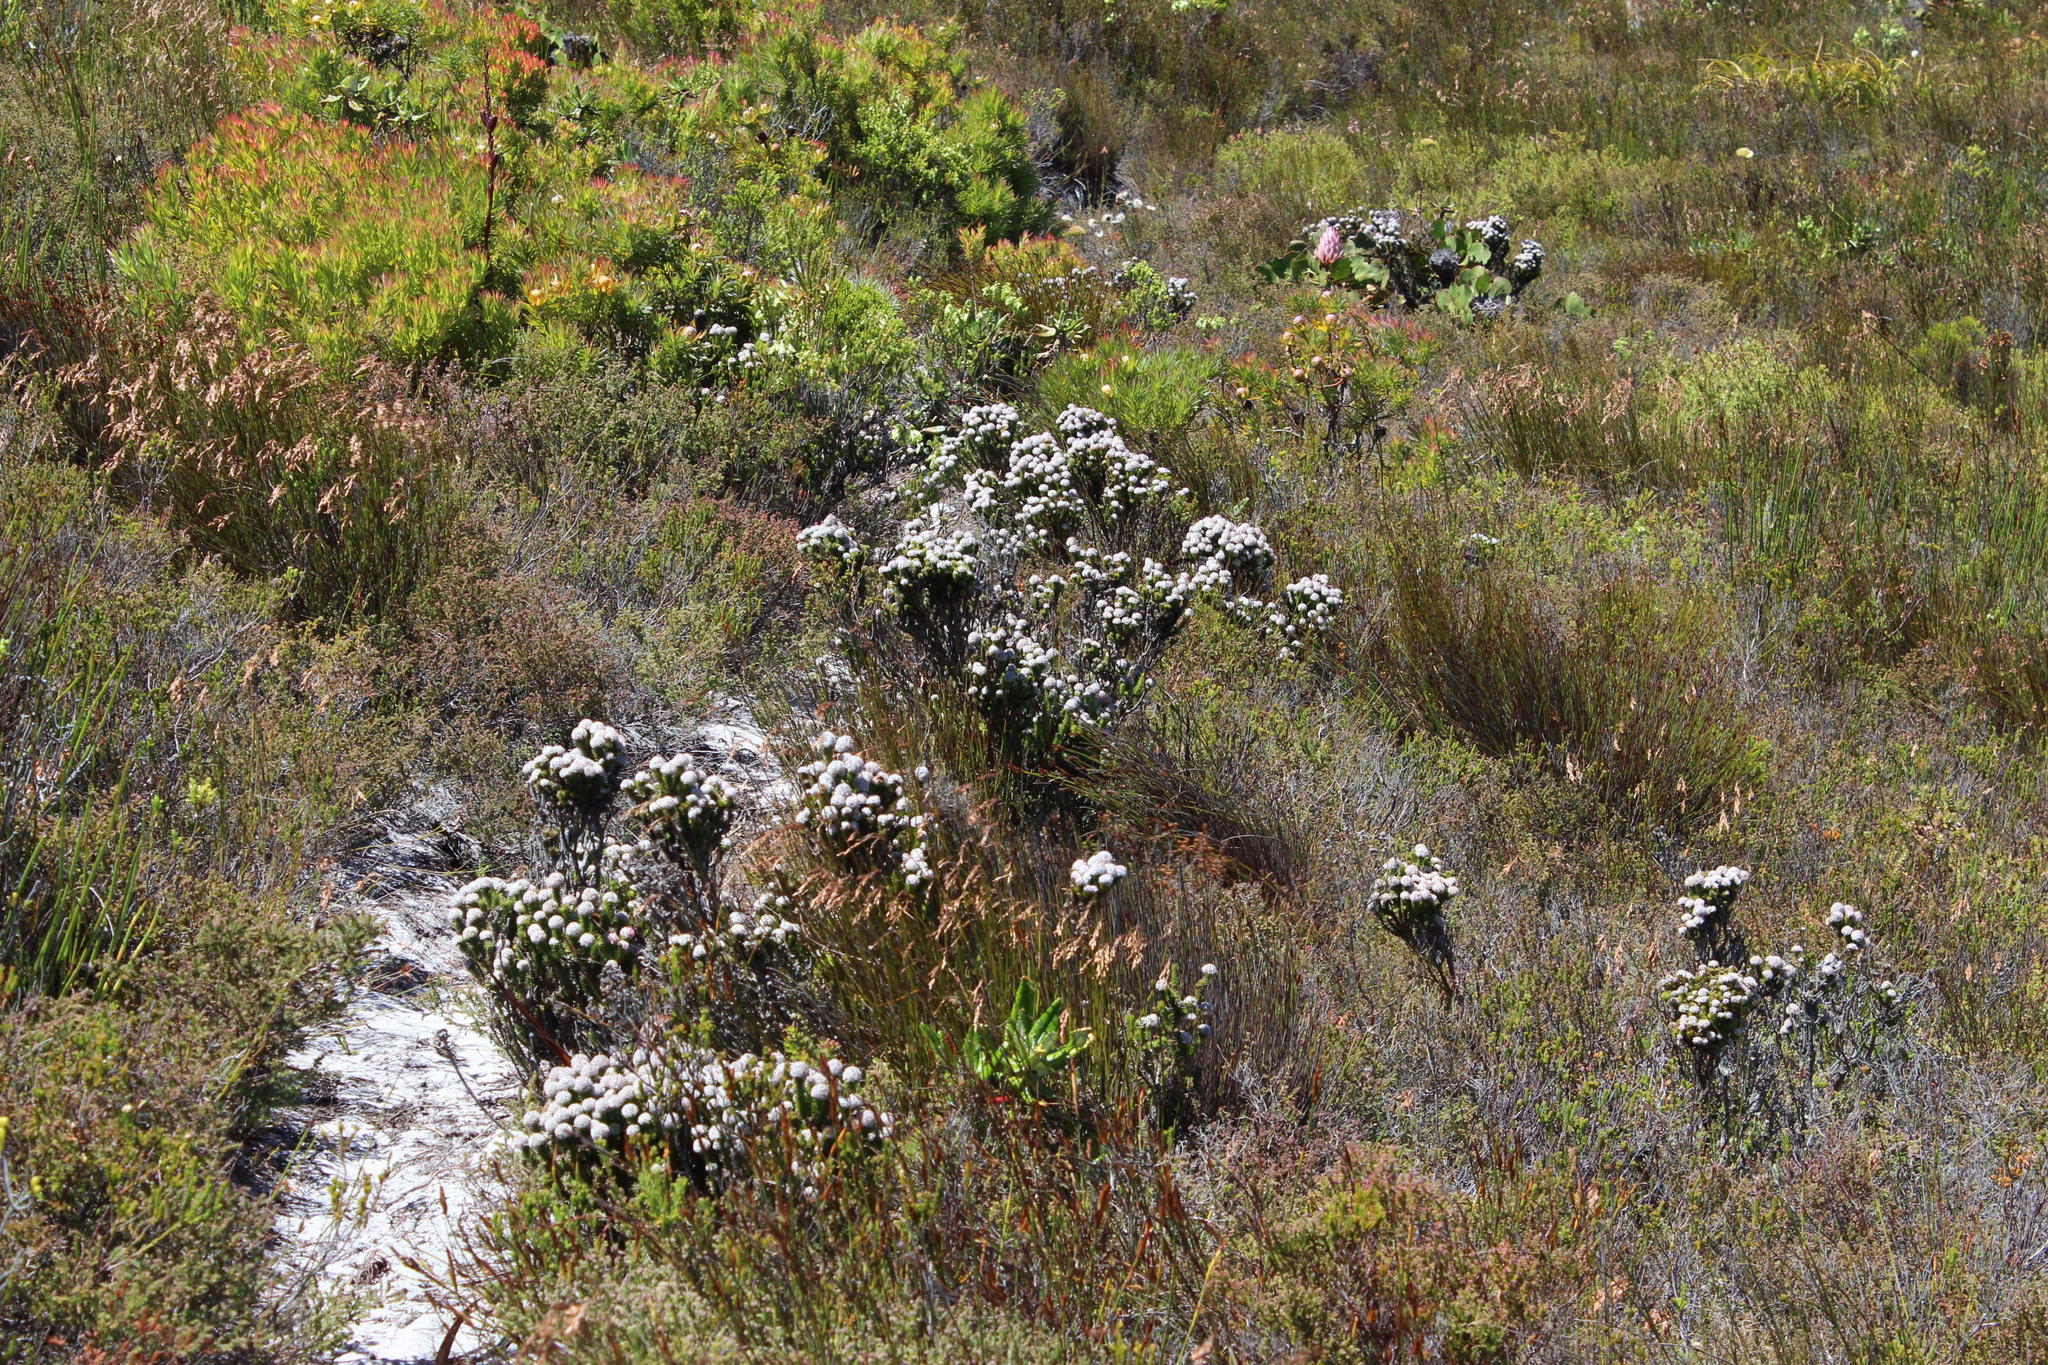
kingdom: Plantae
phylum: Tracheophyta
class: Magnoliopsida
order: Asterales
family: Asteraceae
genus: Stoebe
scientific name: Stoebe rosea
